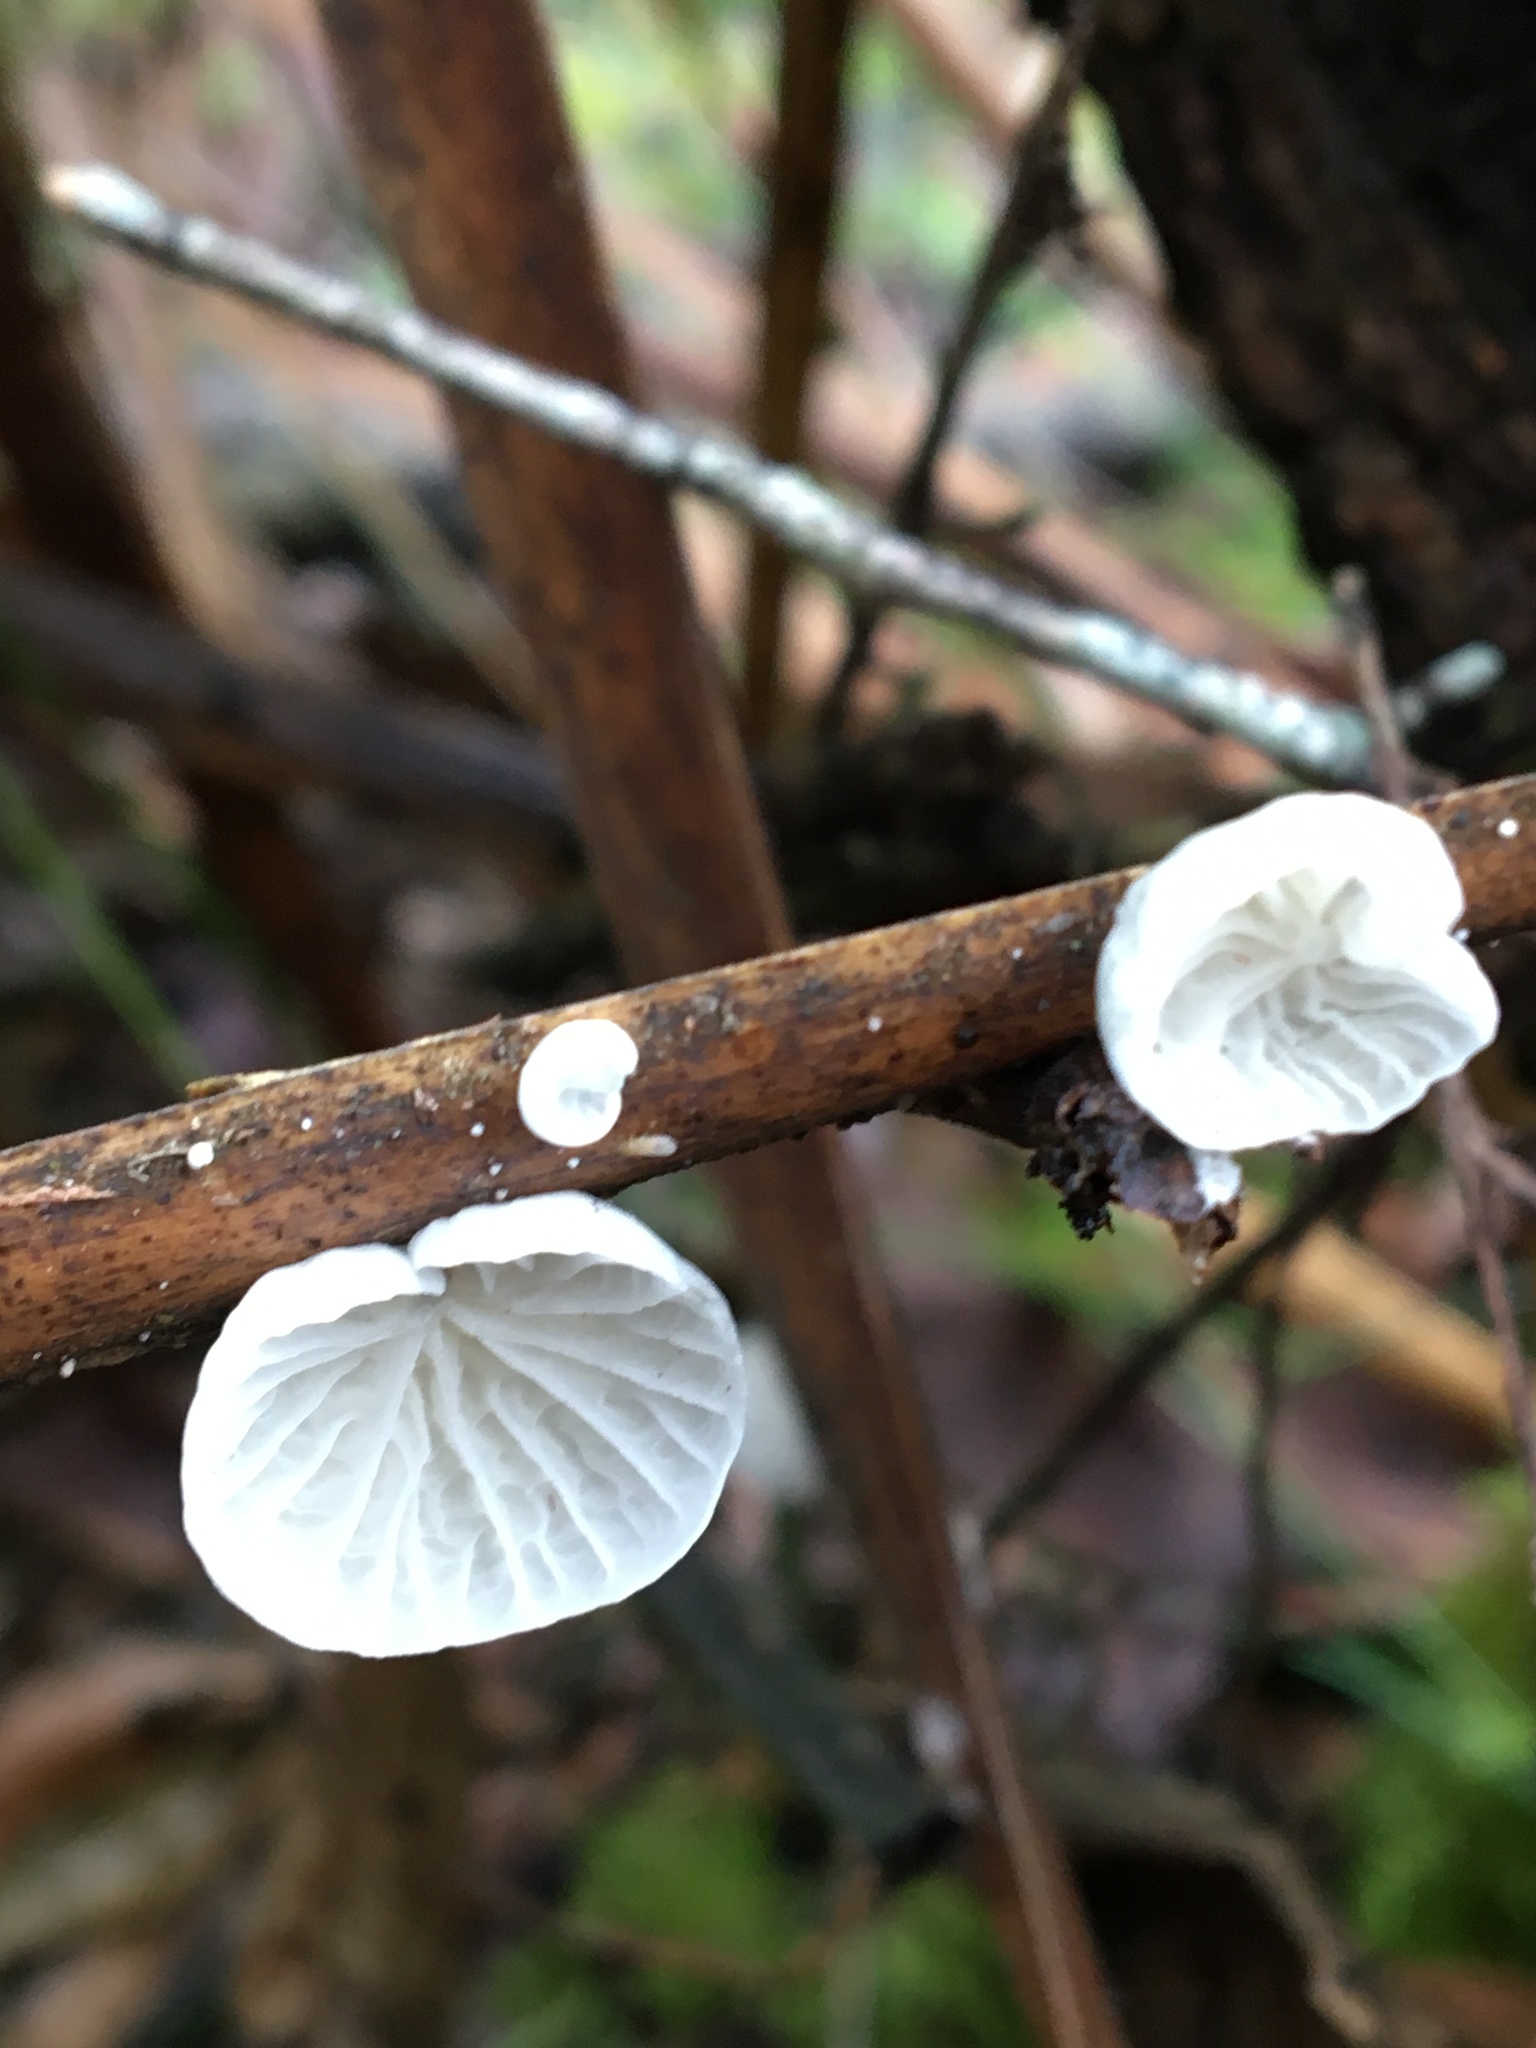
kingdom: Fungi
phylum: Basidiomycota
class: Agaricomycetes
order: Agaricales
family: Marasmiaceae
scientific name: Marasmiaceae
